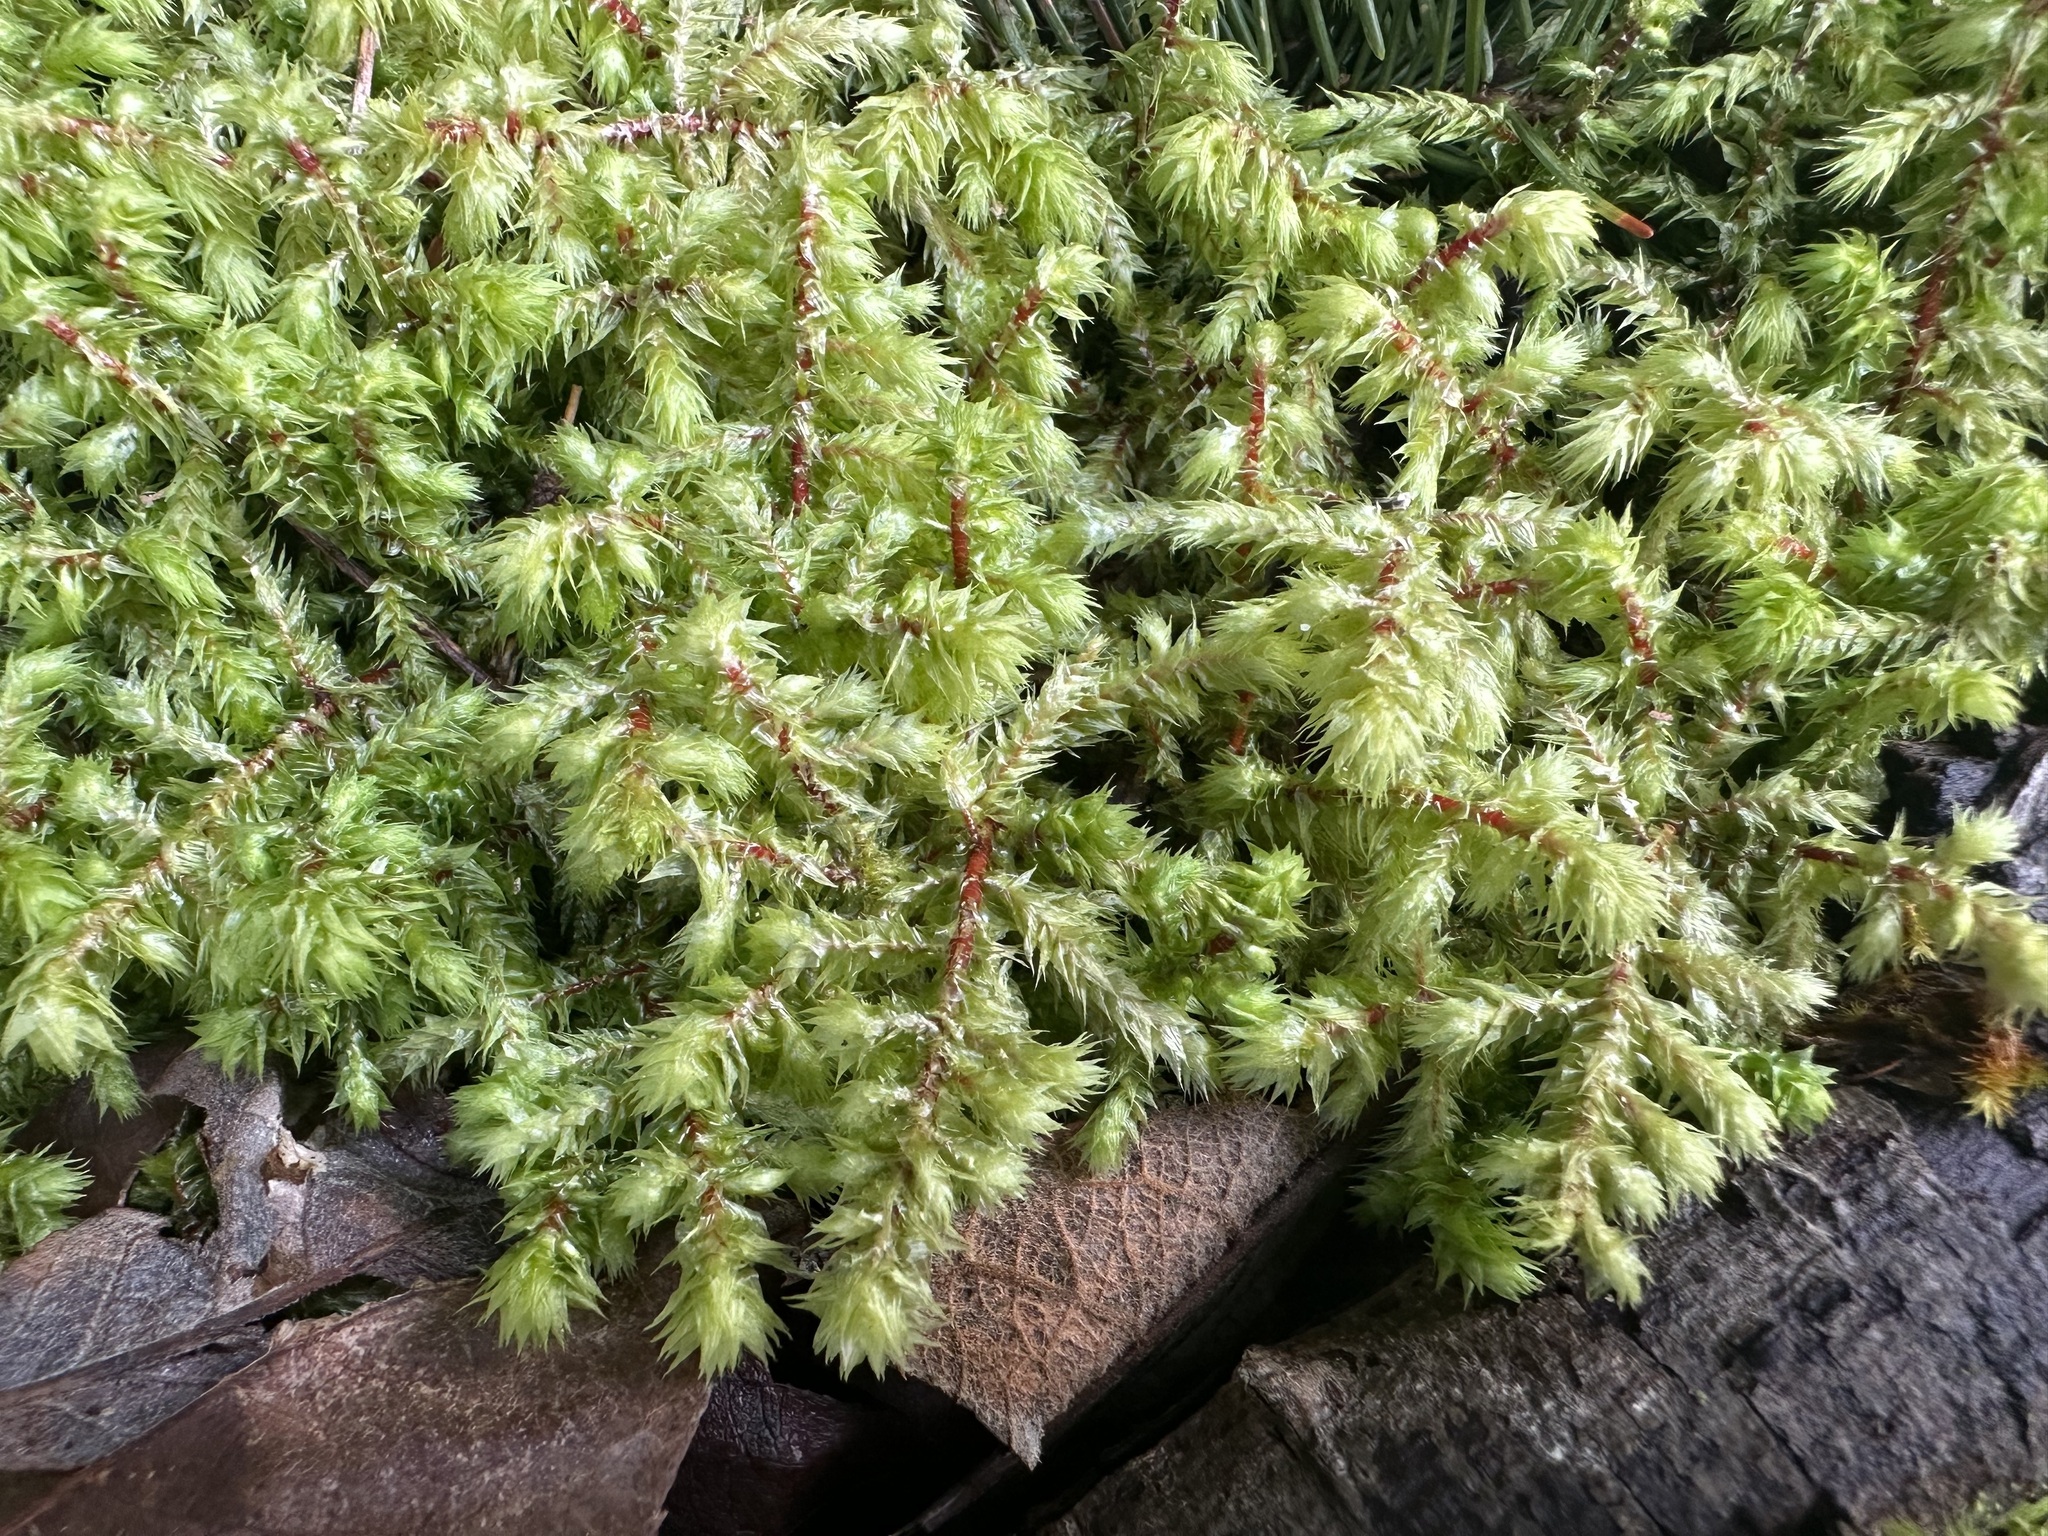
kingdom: Plantae
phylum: Bryophyta
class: Bryopsida
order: Hypnales
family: Hylocomiaceae
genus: Hylocomiadelphus
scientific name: Hylocomiadelphus triquetrus
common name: Rough goose neck moss
